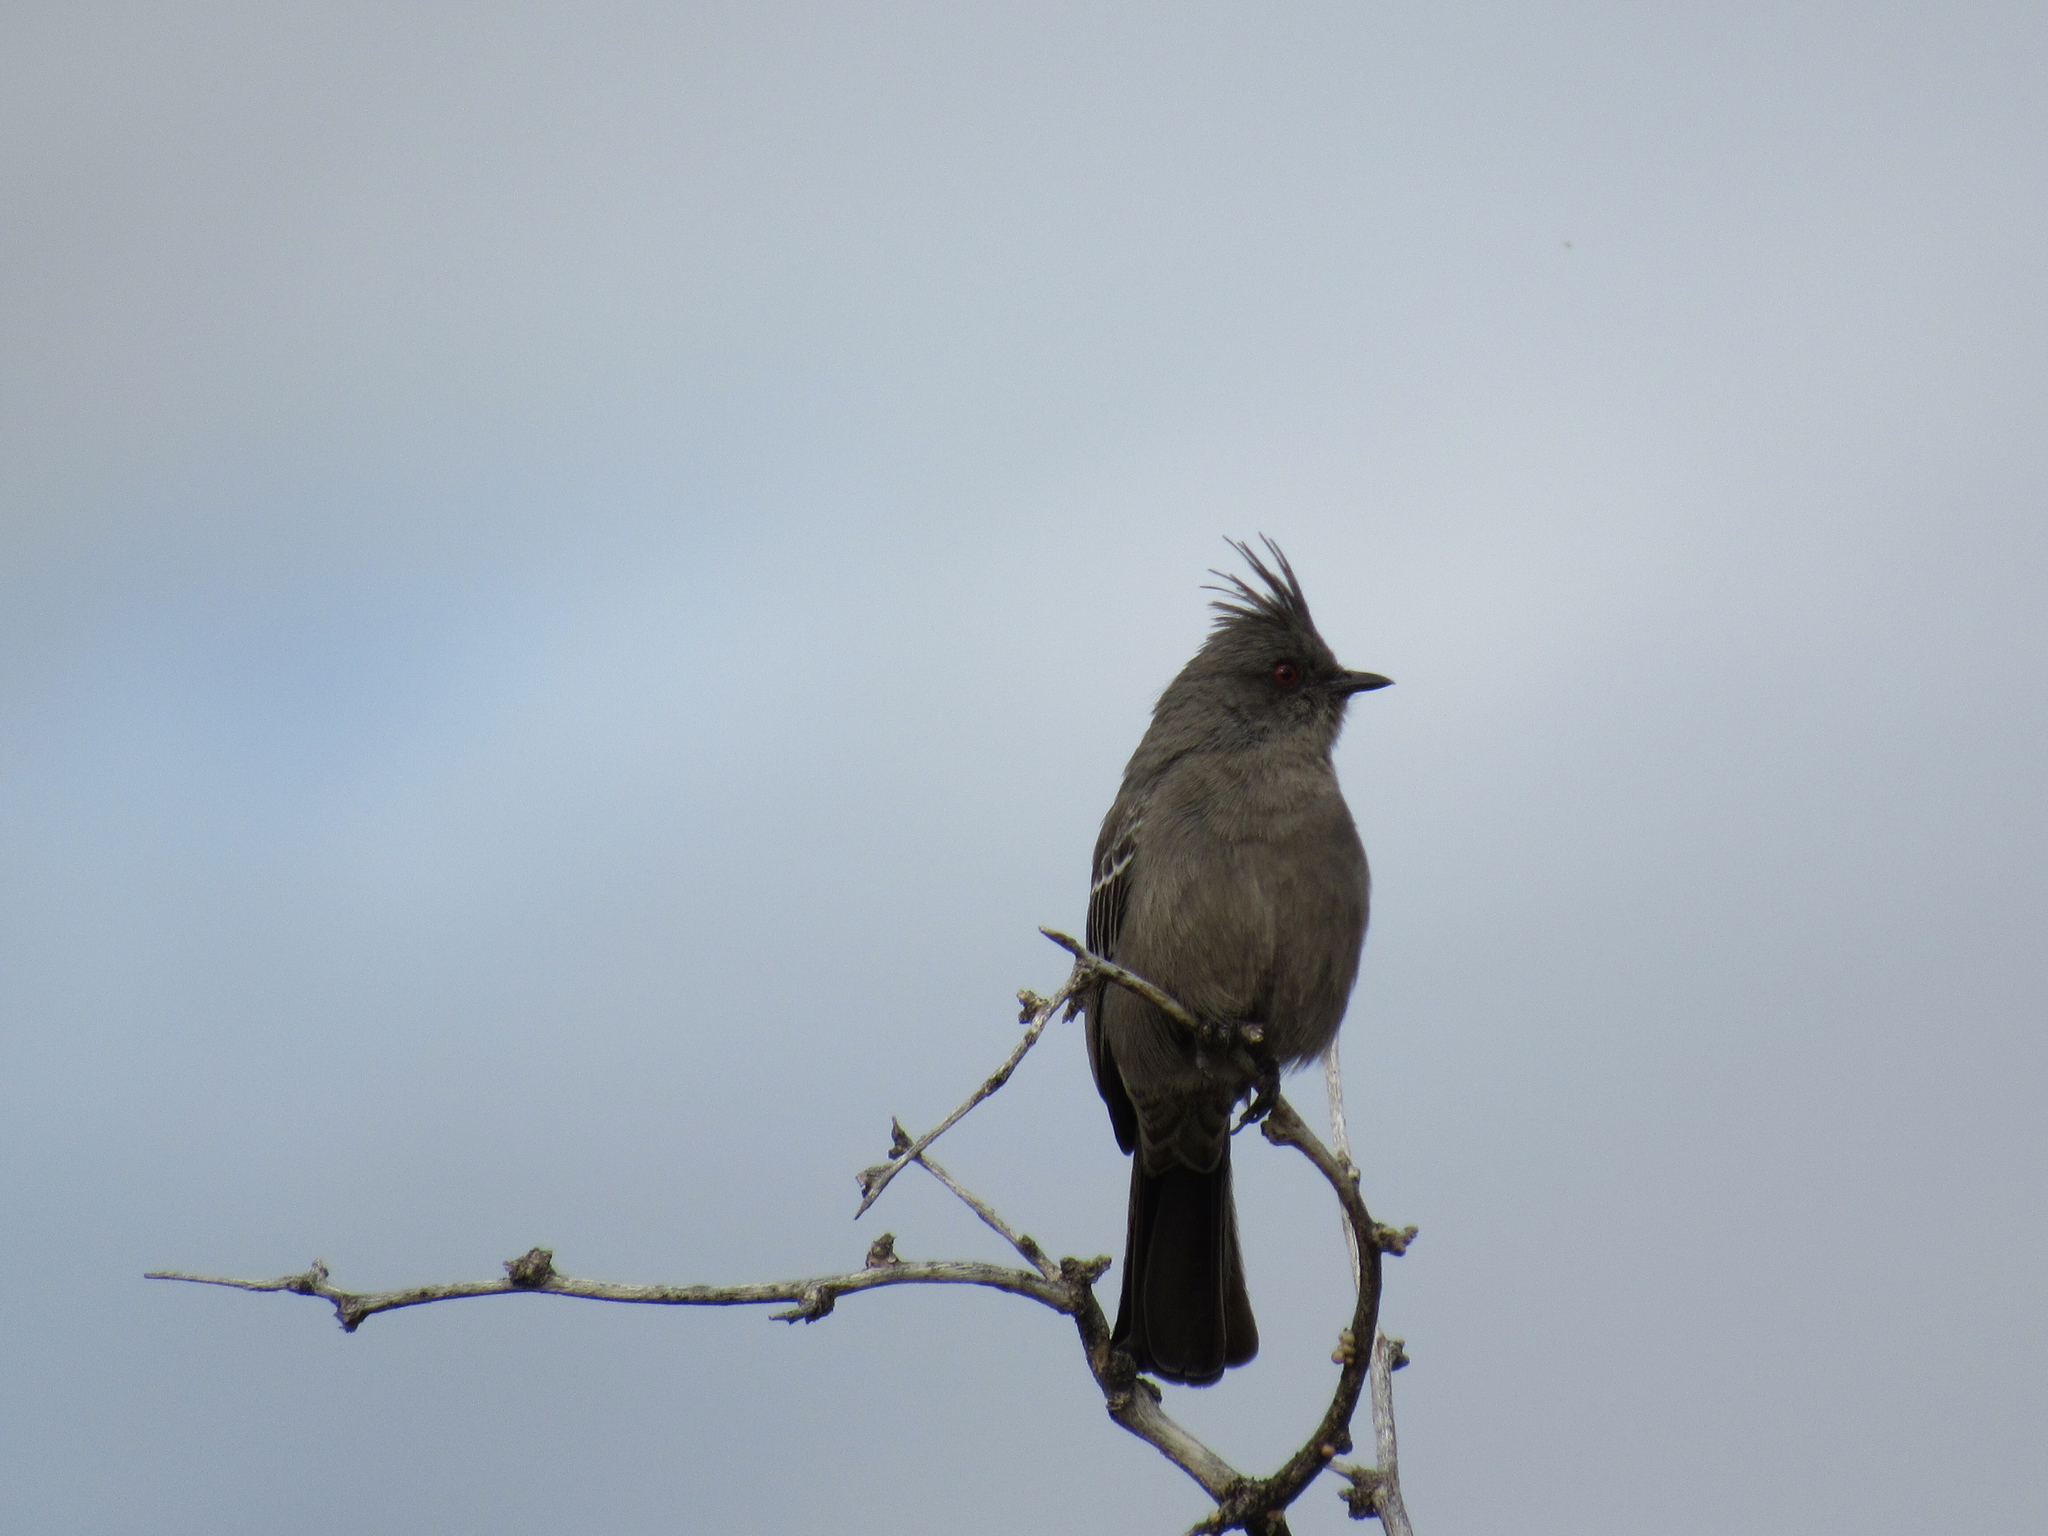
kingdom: Animalia
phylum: Chordata
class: Aves
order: Passeriformes
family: Ptilogonatidae
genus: Phainopepla
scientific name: Phainopepla nitens
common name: Phainopepla
